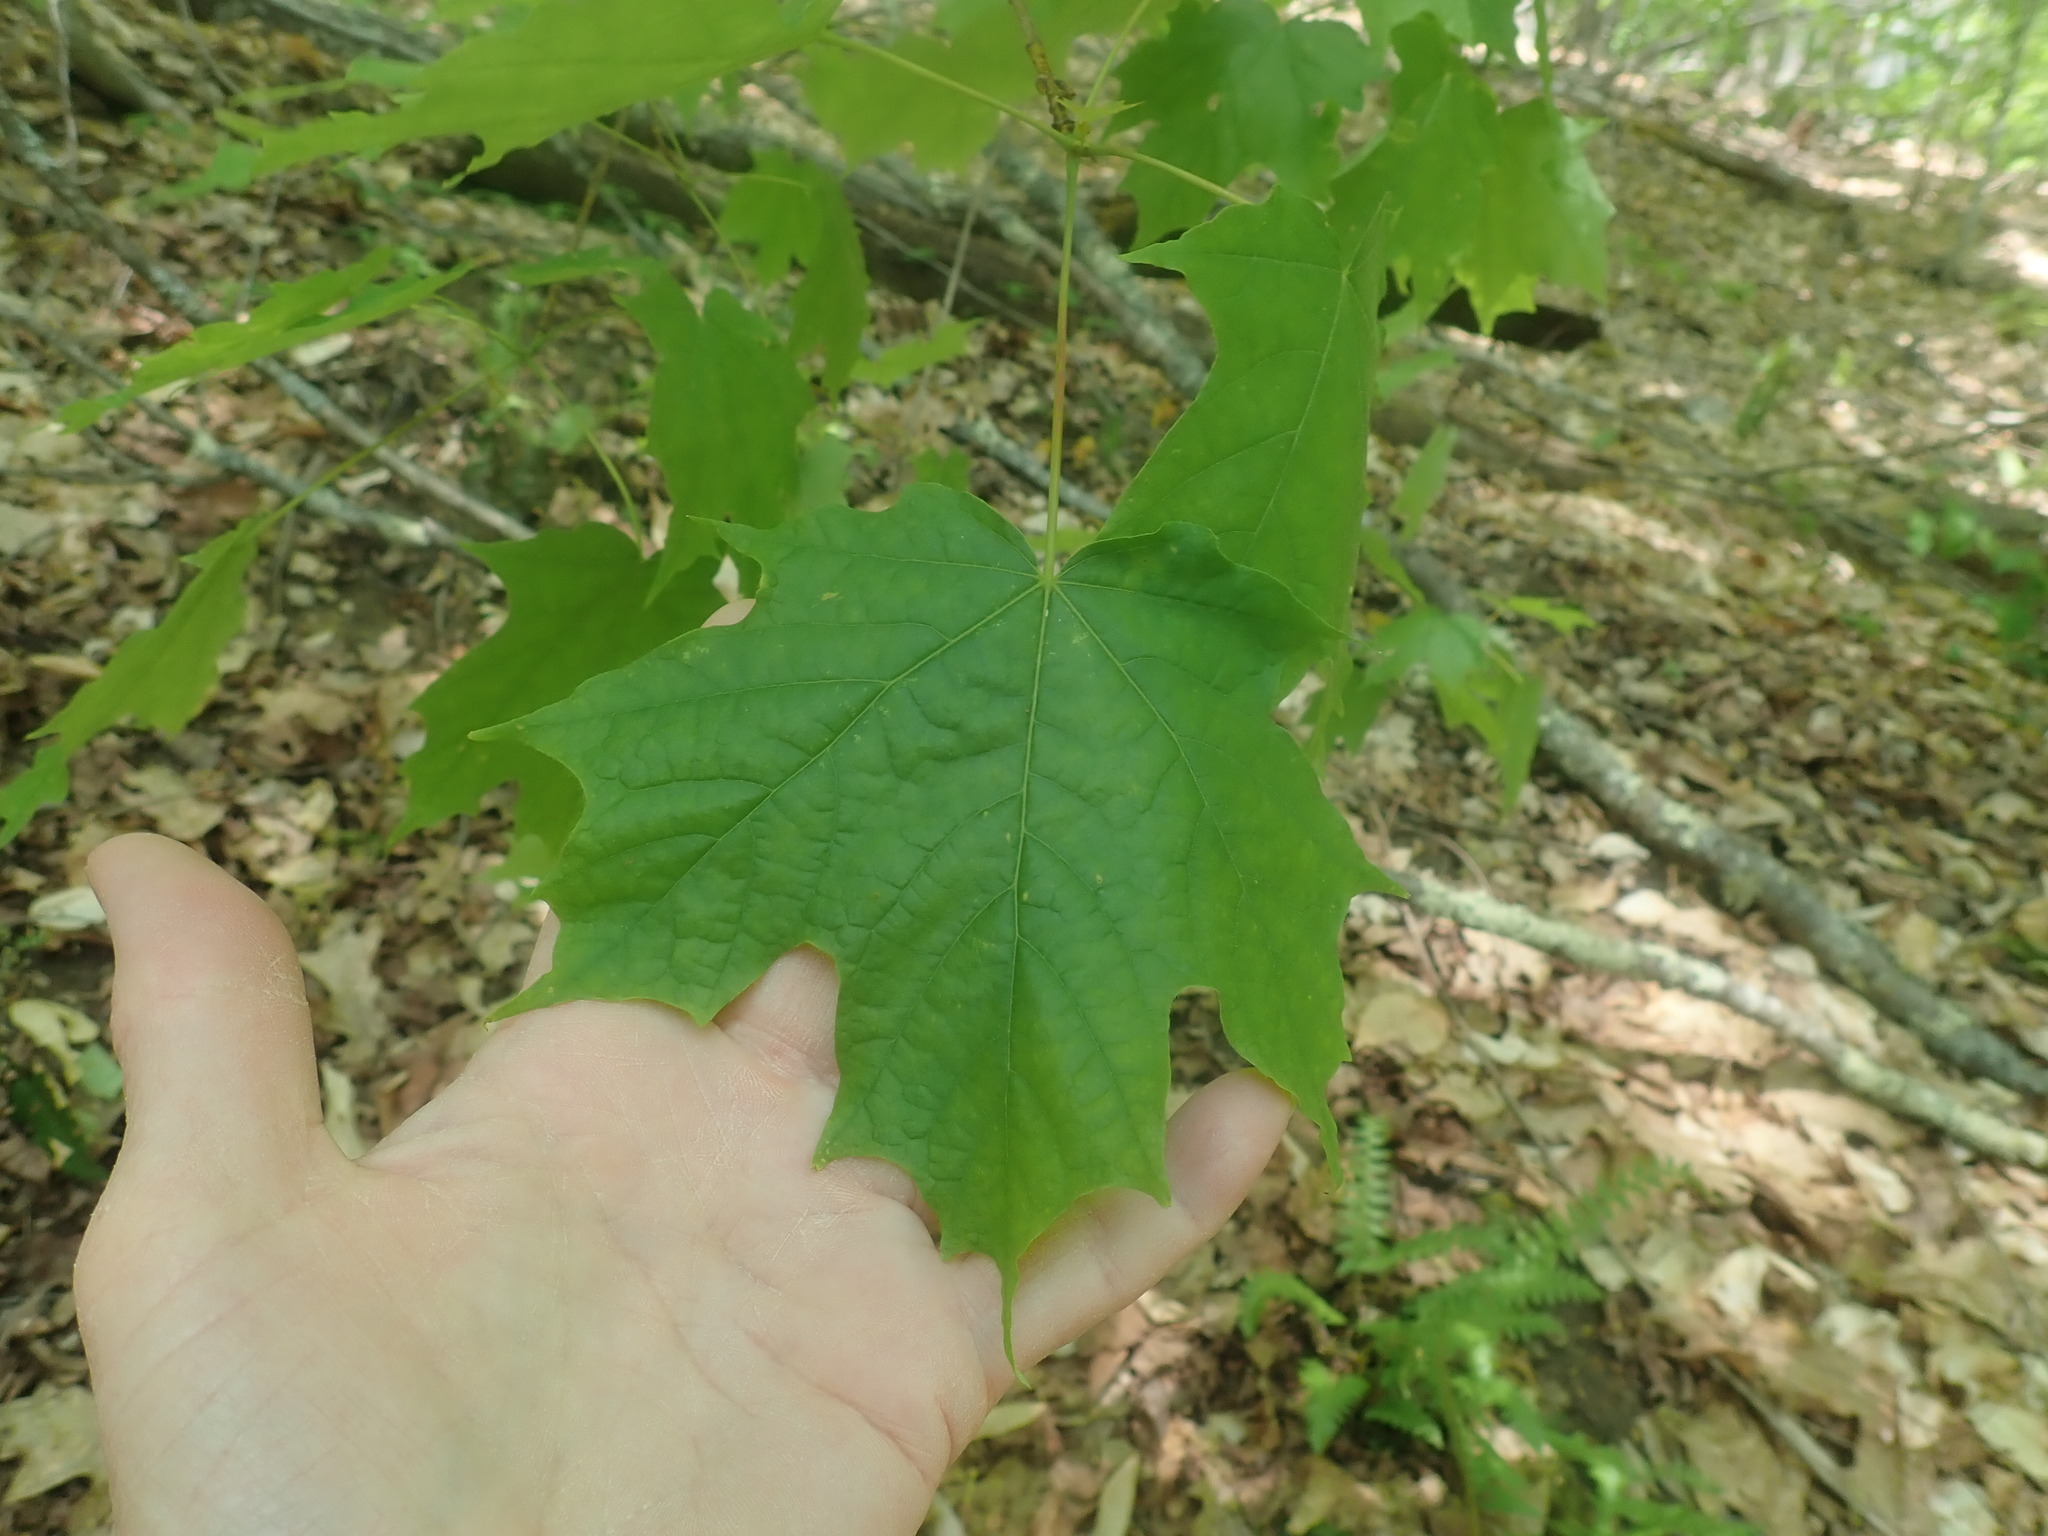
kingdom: Plantae
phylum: Tracheophyta
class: Magnoliopsida
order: Sapindales
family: Sapindaceae
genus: Acer
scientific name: Acer saccharum
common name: Sugar maple
